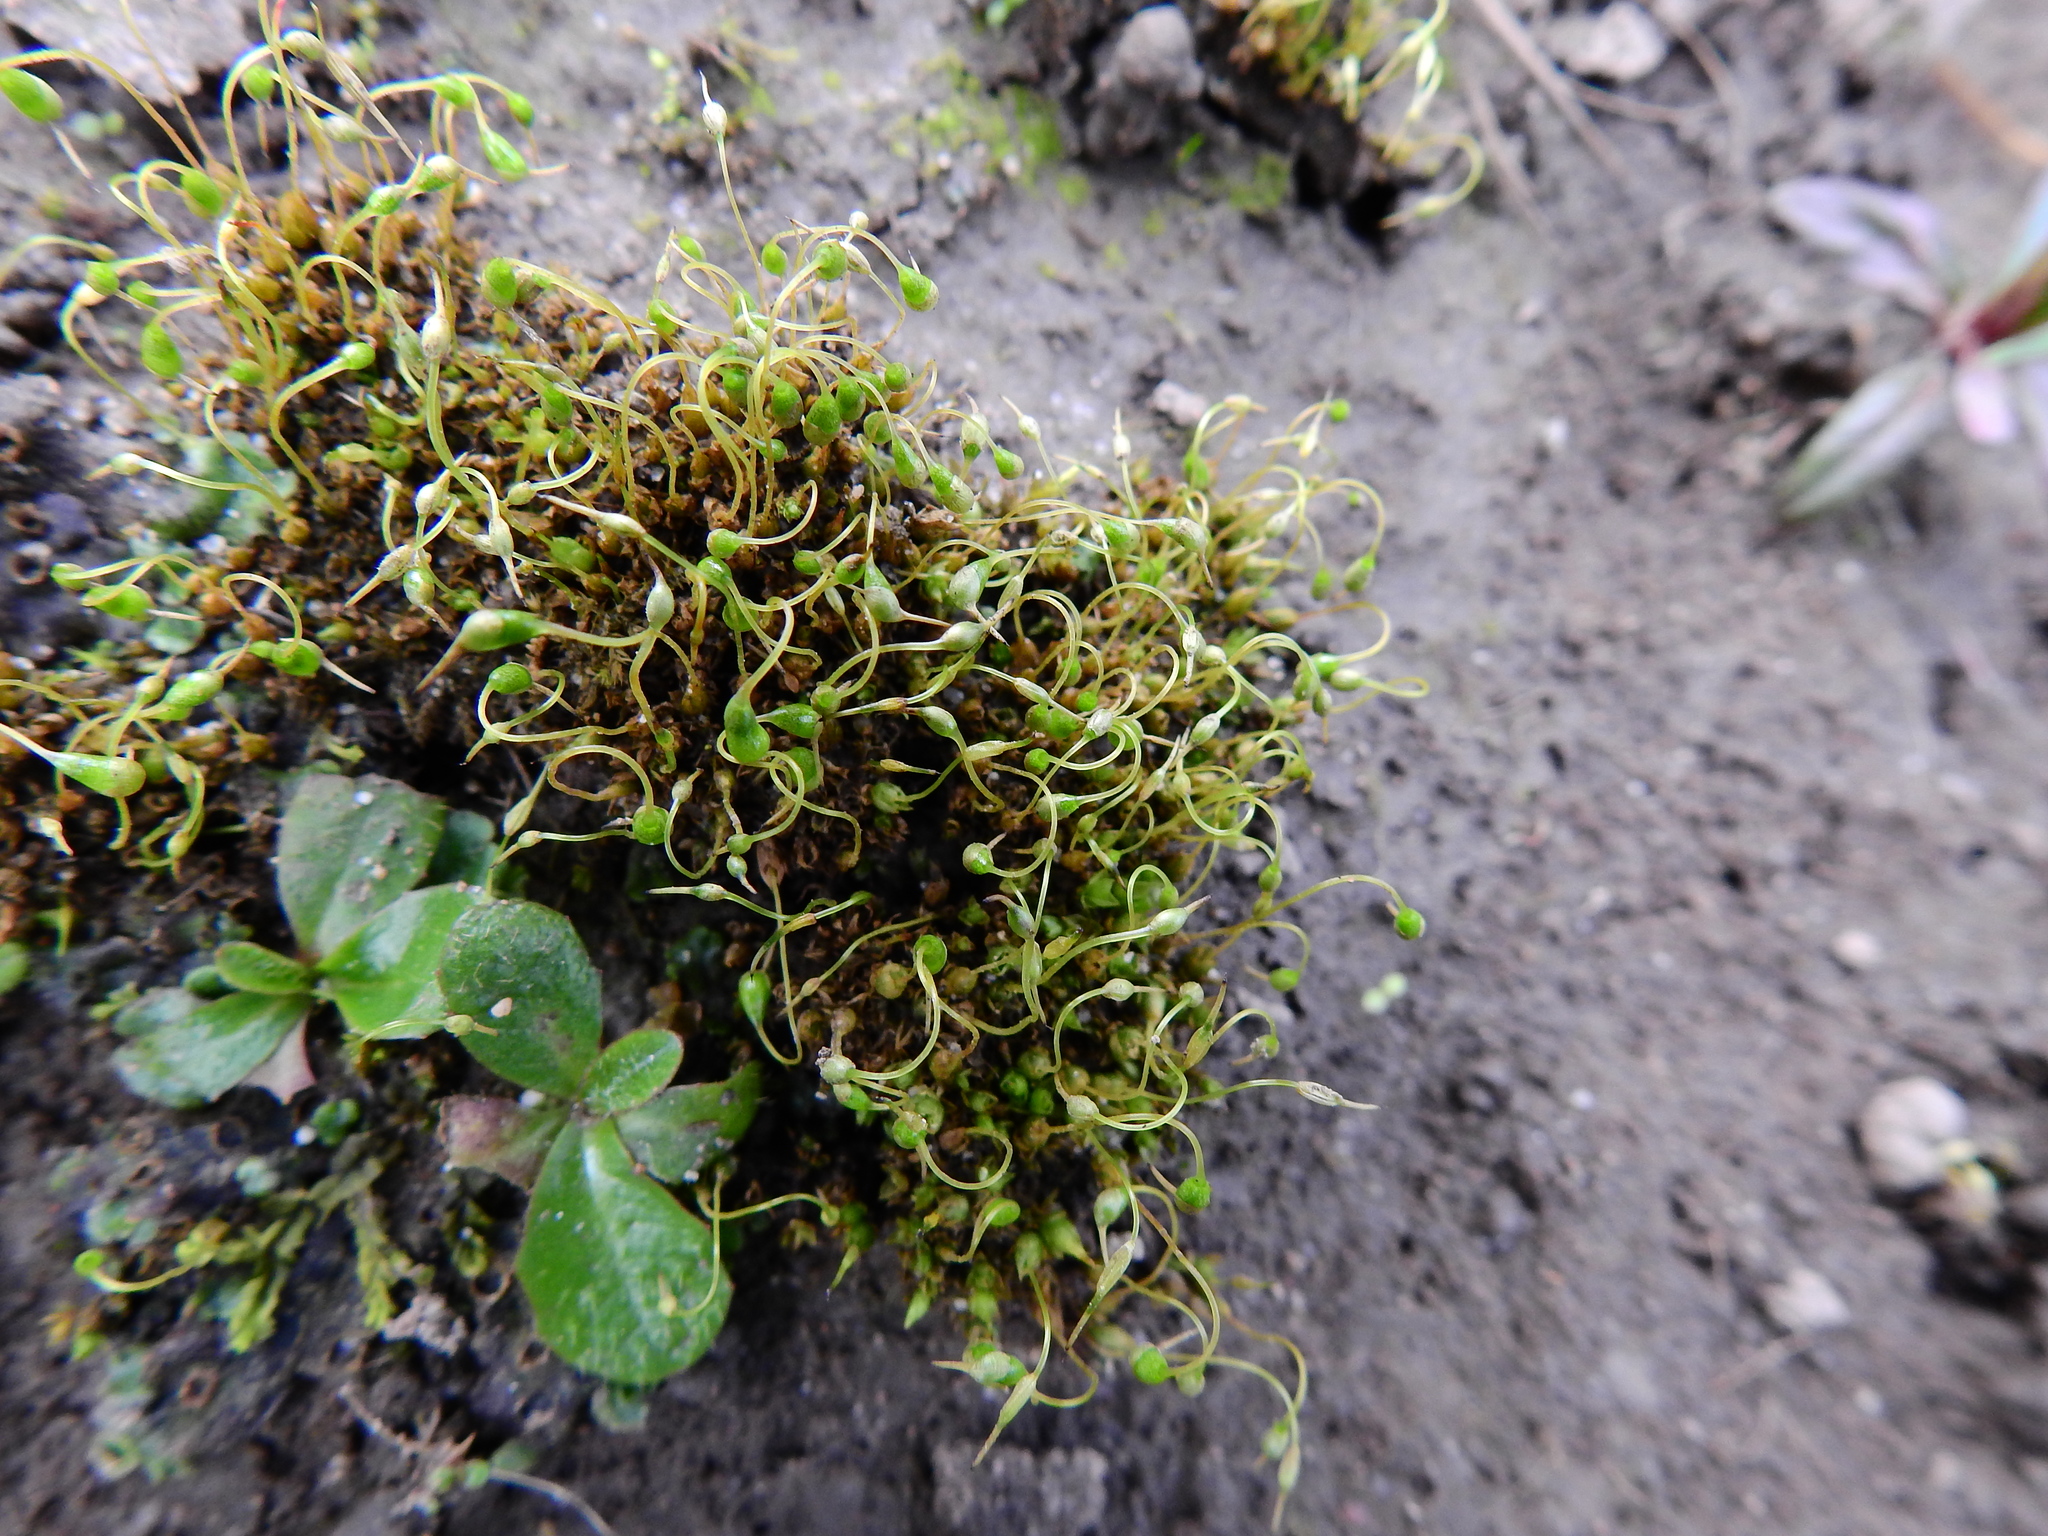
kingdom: Plantae
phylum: Bryophyta
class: Bryopsida
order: Funariales
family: Funariaceae
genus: Funaria
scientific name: Funaria hygrometrica
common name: Common cord moss
